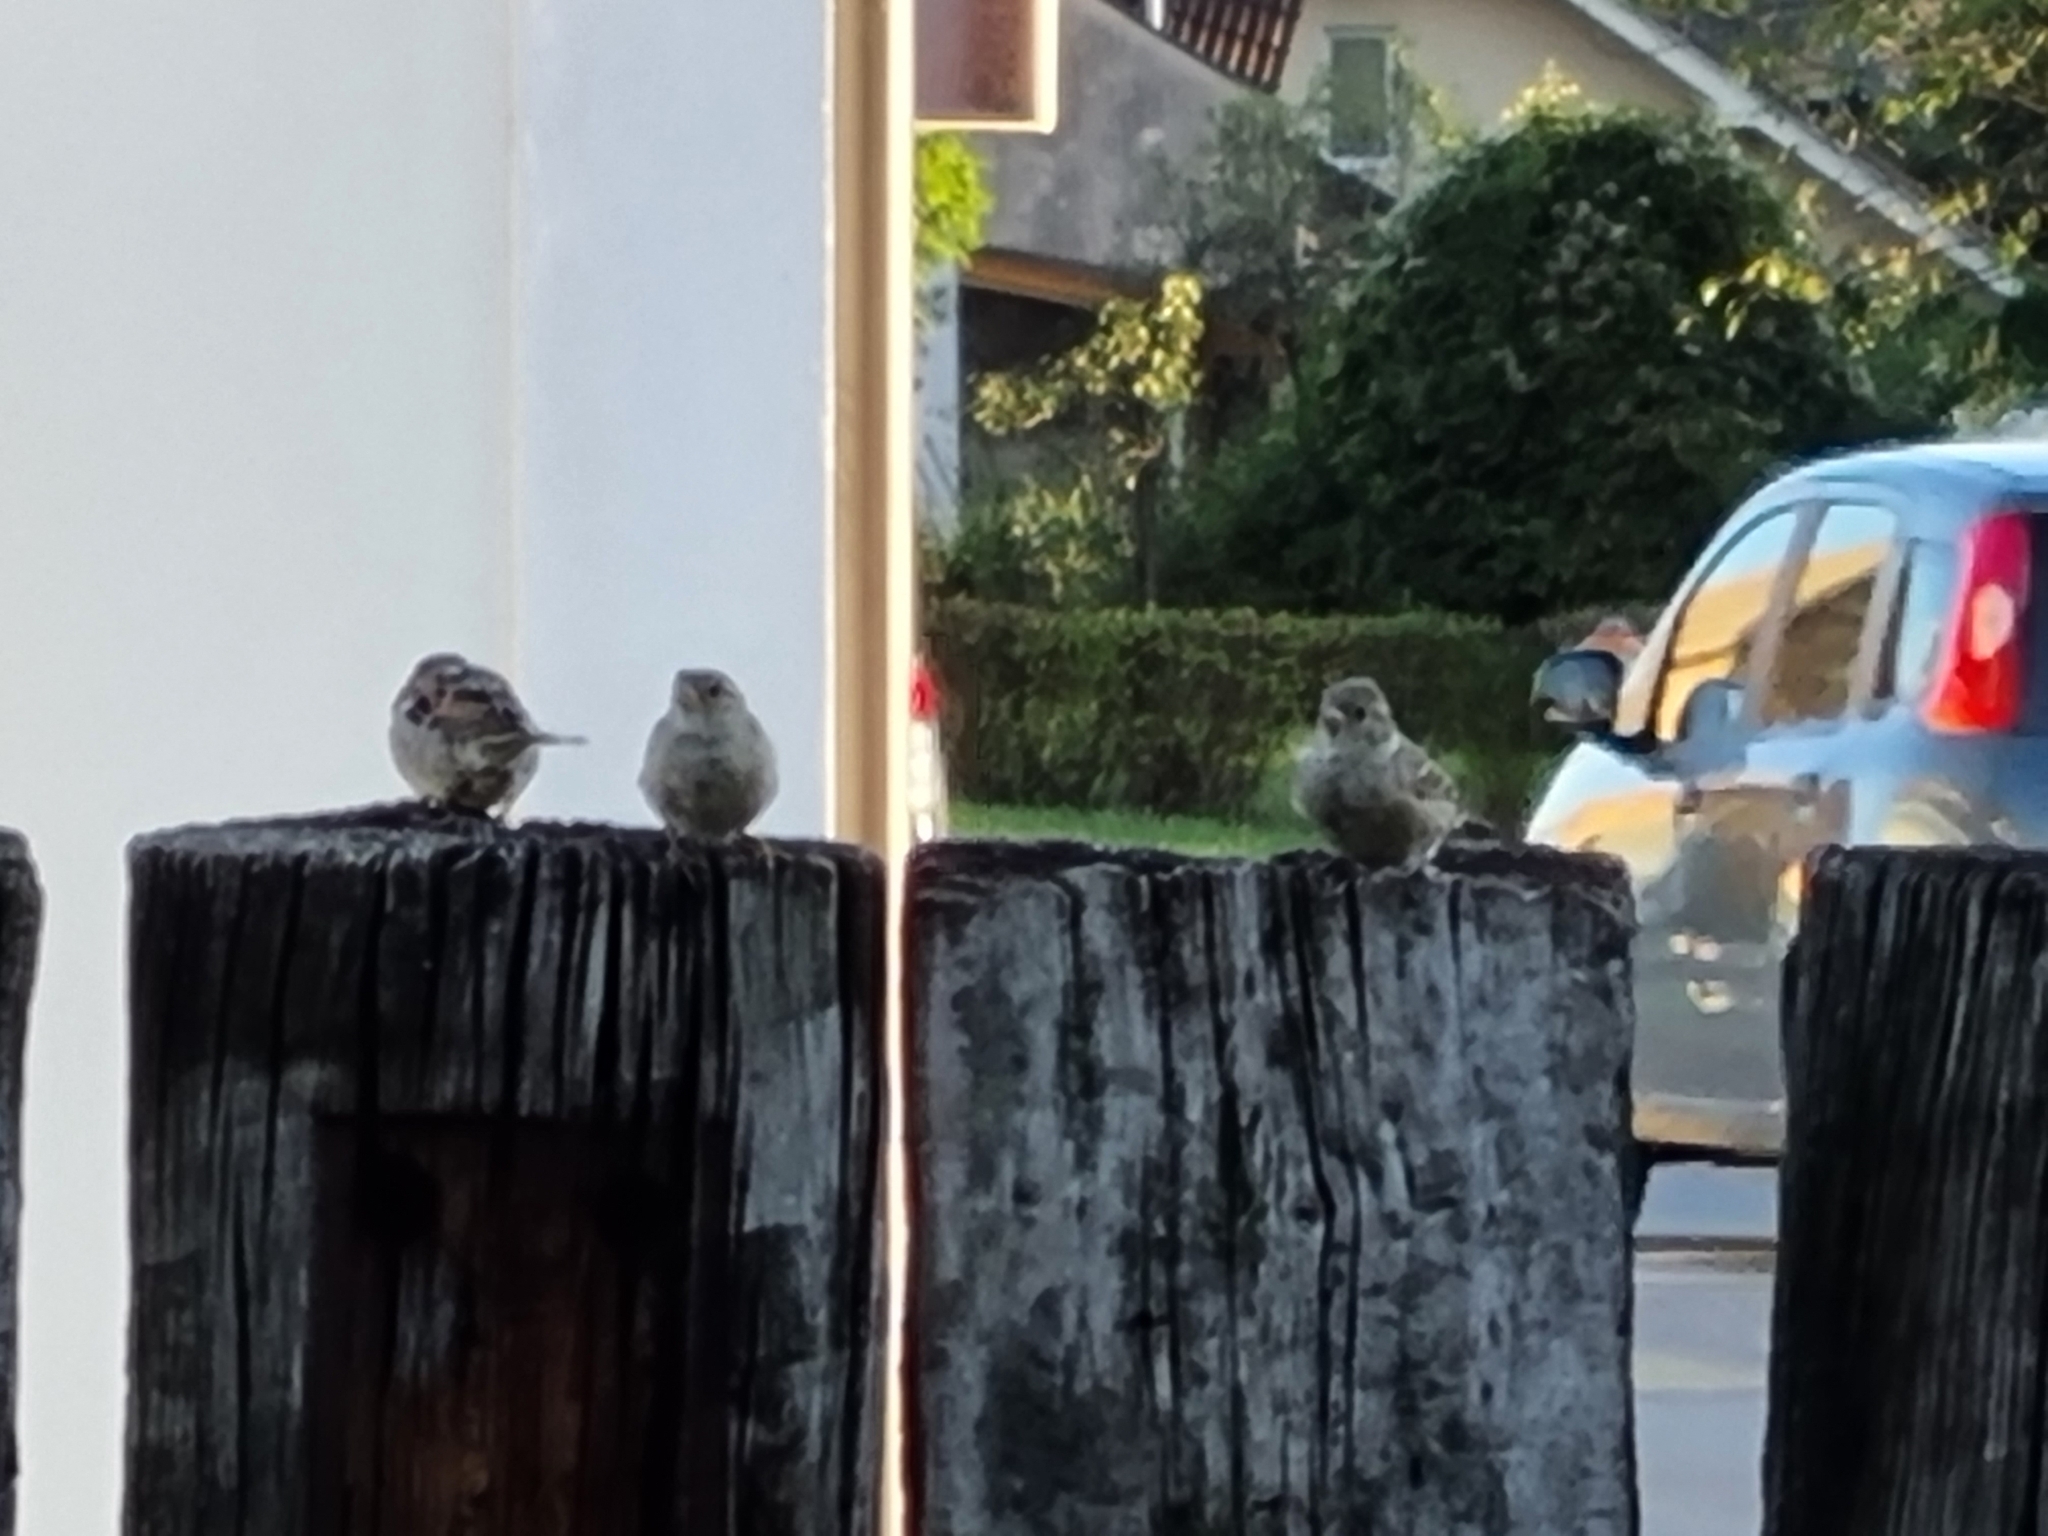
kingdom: Animalia
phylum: Chordata
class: Aves
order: Passeriformes
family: Passeridae
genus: Passer
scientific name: Passer domesticus
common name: House sparrow
